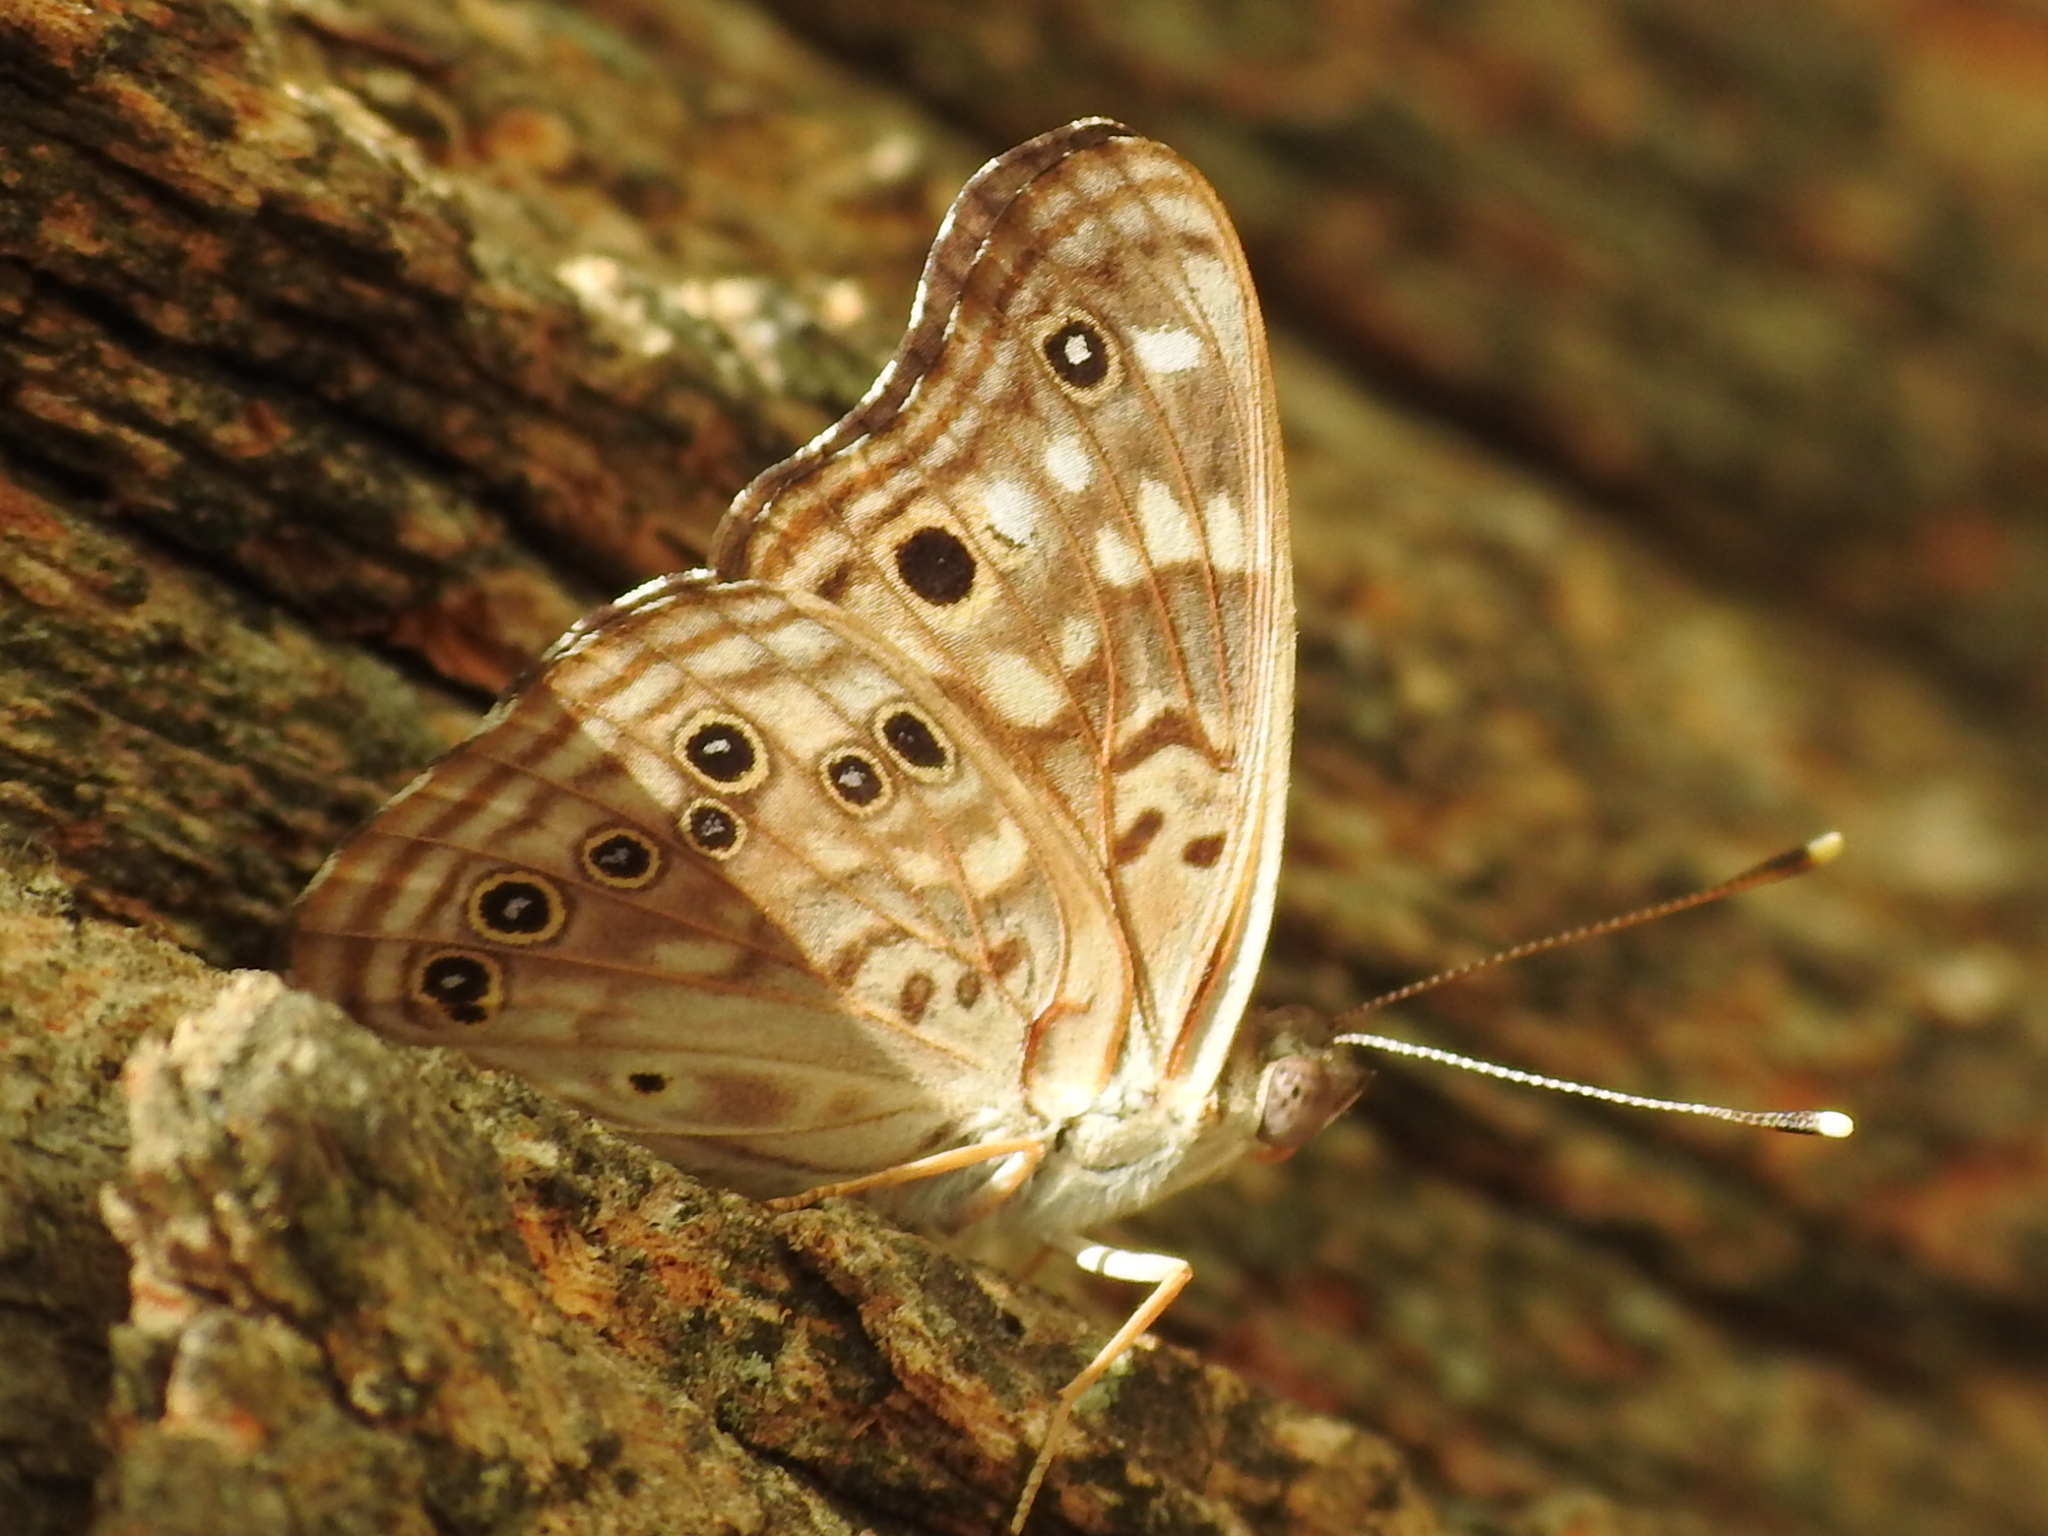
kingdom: Animalia
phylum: Arthropoda
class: Insecta
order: Lepidoptera
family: Nymphalidae
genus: Asterocampa
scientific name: Asterocampa celtis
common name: Hackberry emperor
